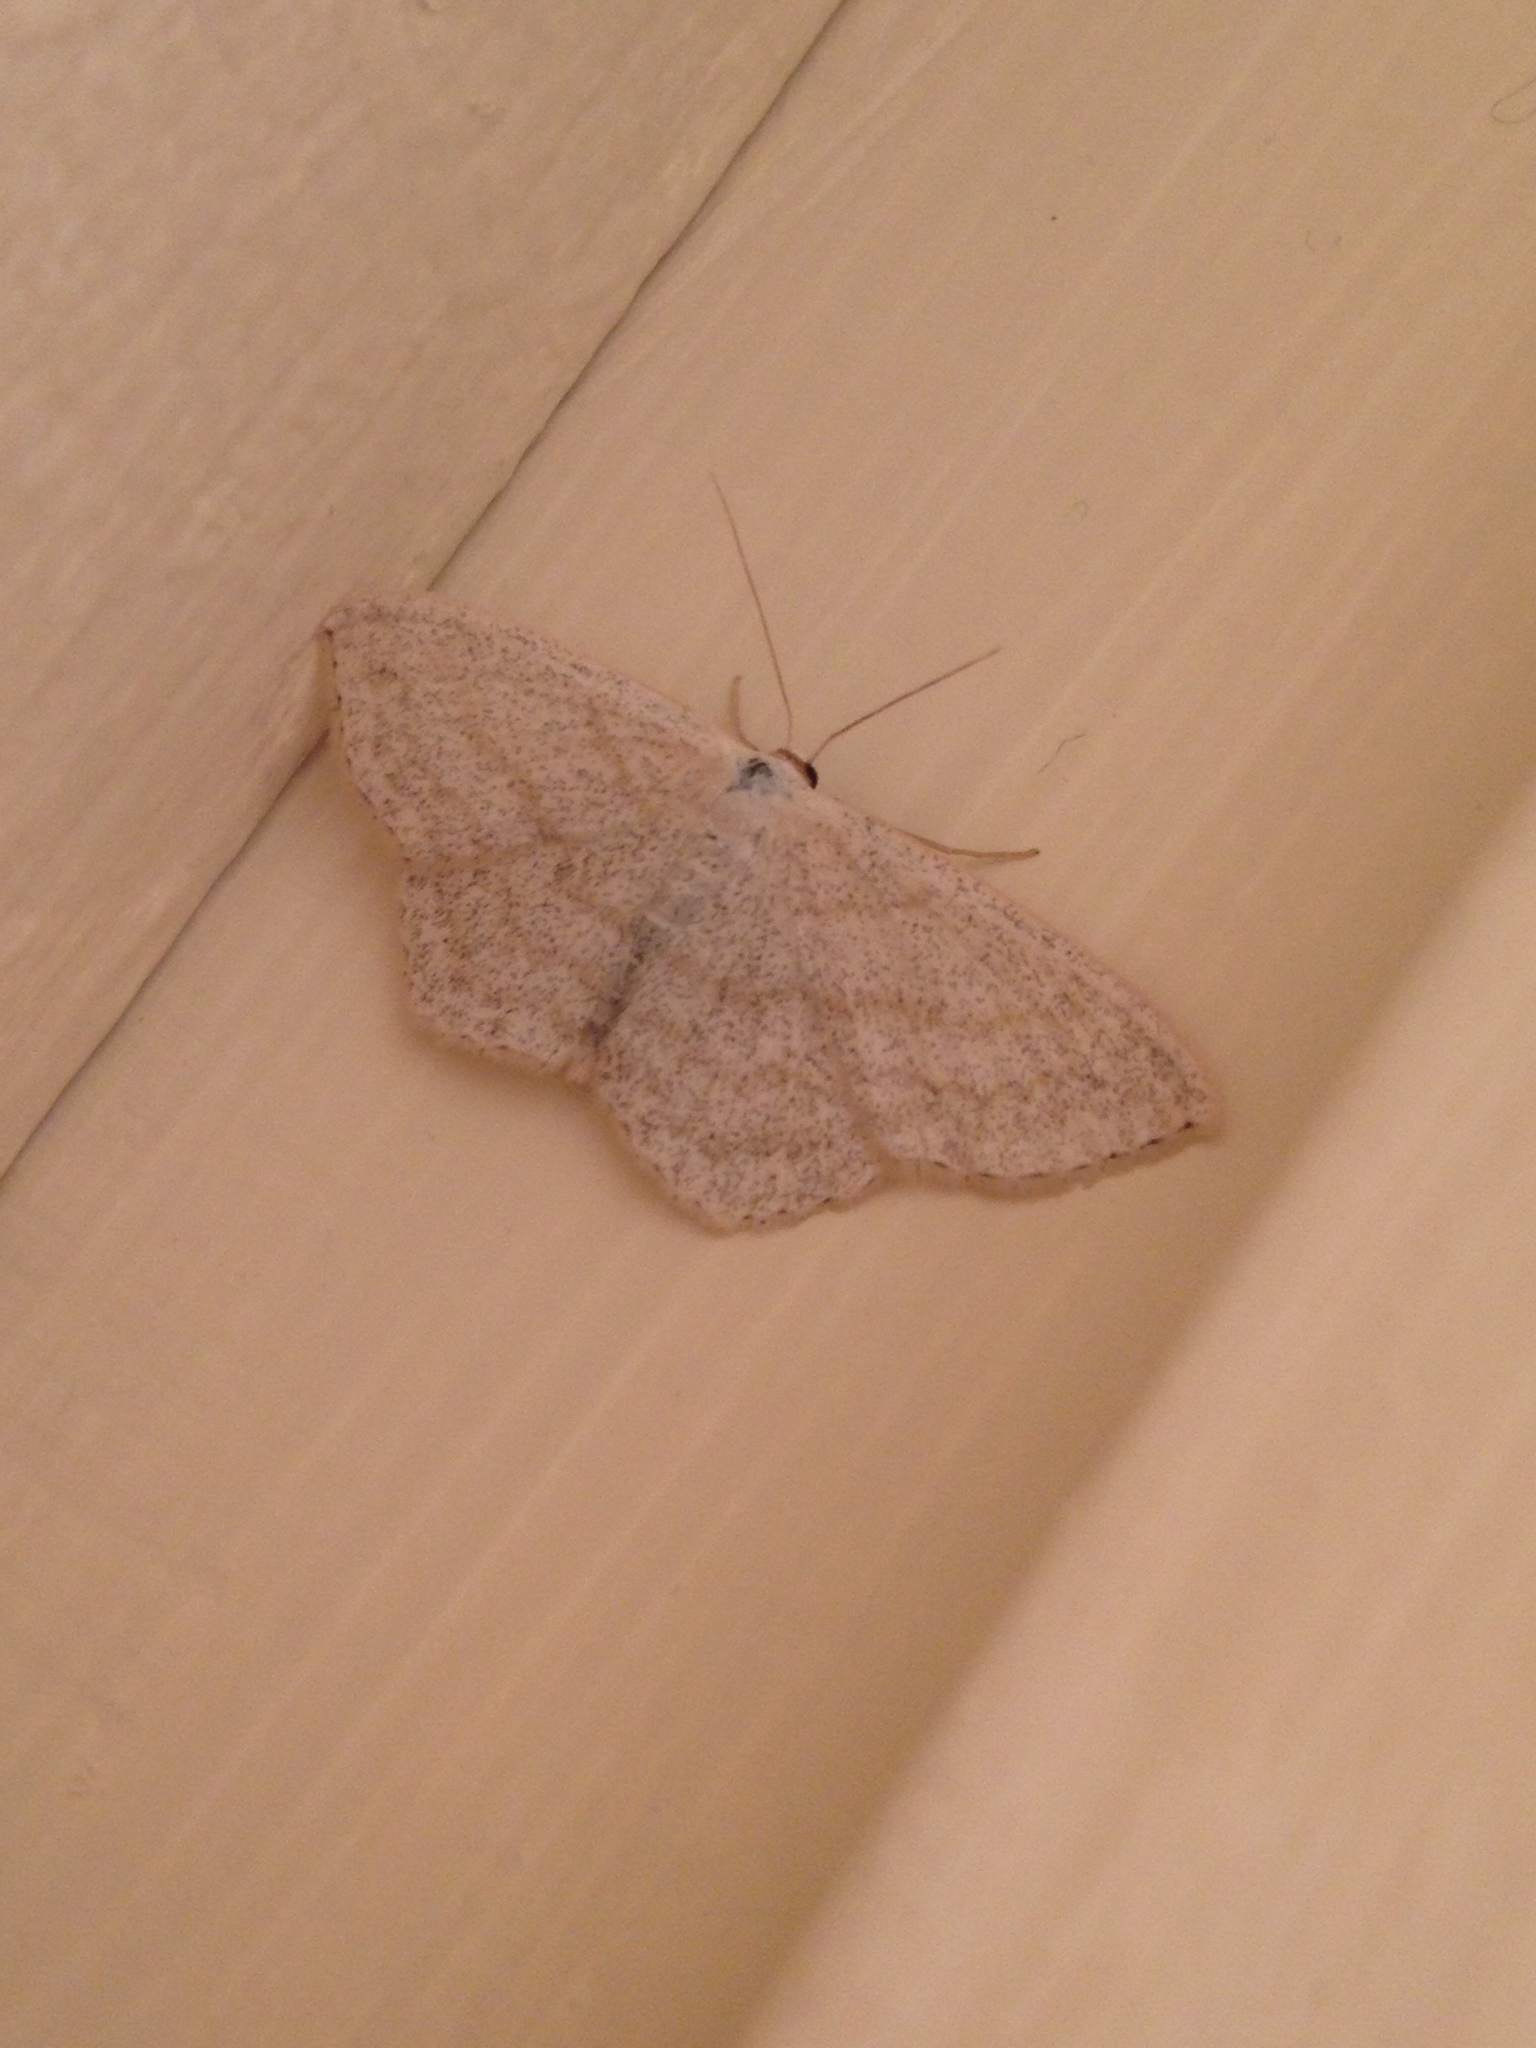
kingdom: Animalia
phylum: Arthropoda
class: Insecta
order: Lepidoptera
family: Geometridae
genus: Scopula
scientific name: Scopula nigropunctata
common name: Sub-angled wave
